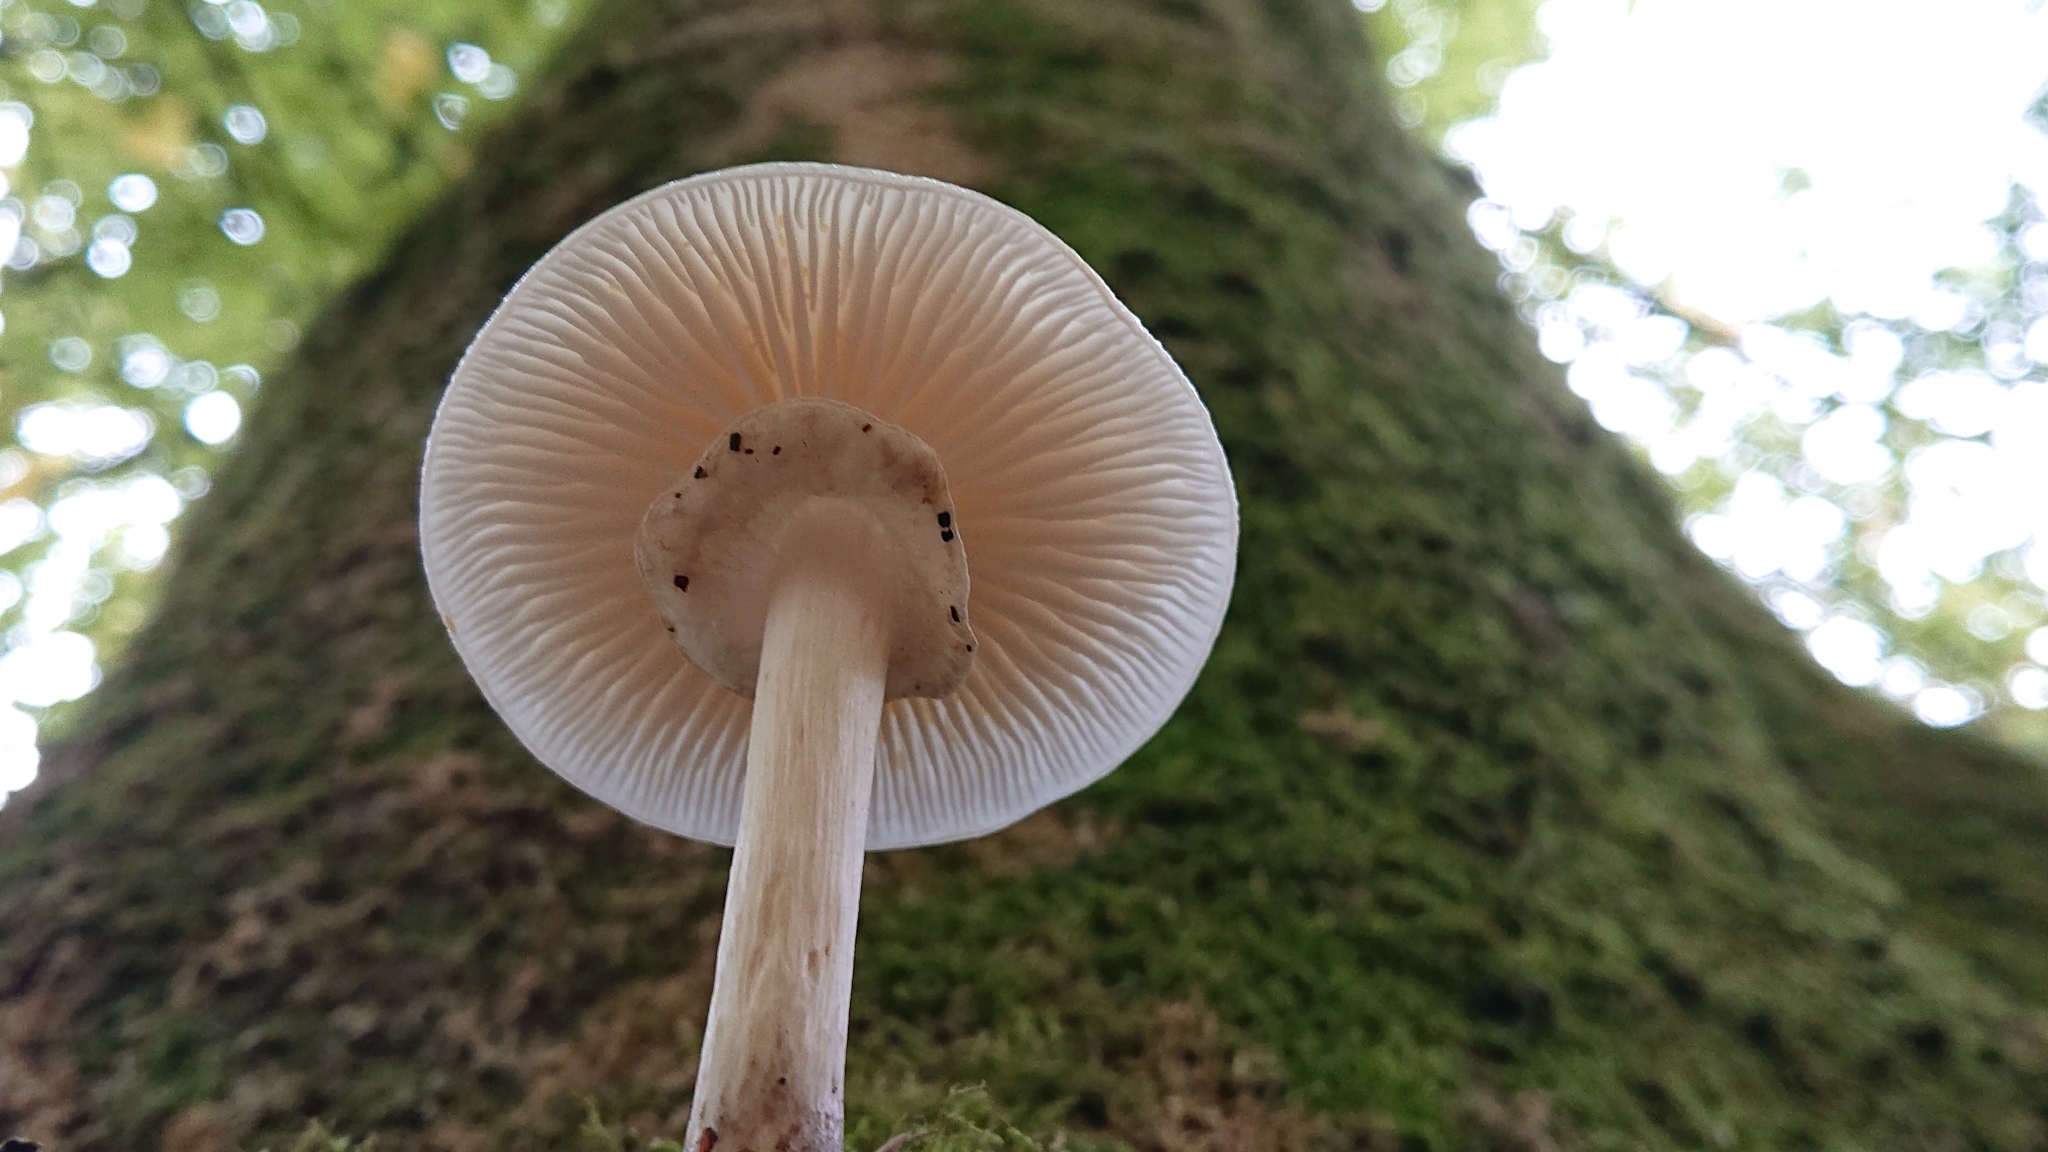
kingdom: Fungi
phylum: Basidiomycota
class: Agaricomycetes
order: Agaricales
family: Physalacriaceae
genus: Mucidula
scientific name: Mucidula mucida
